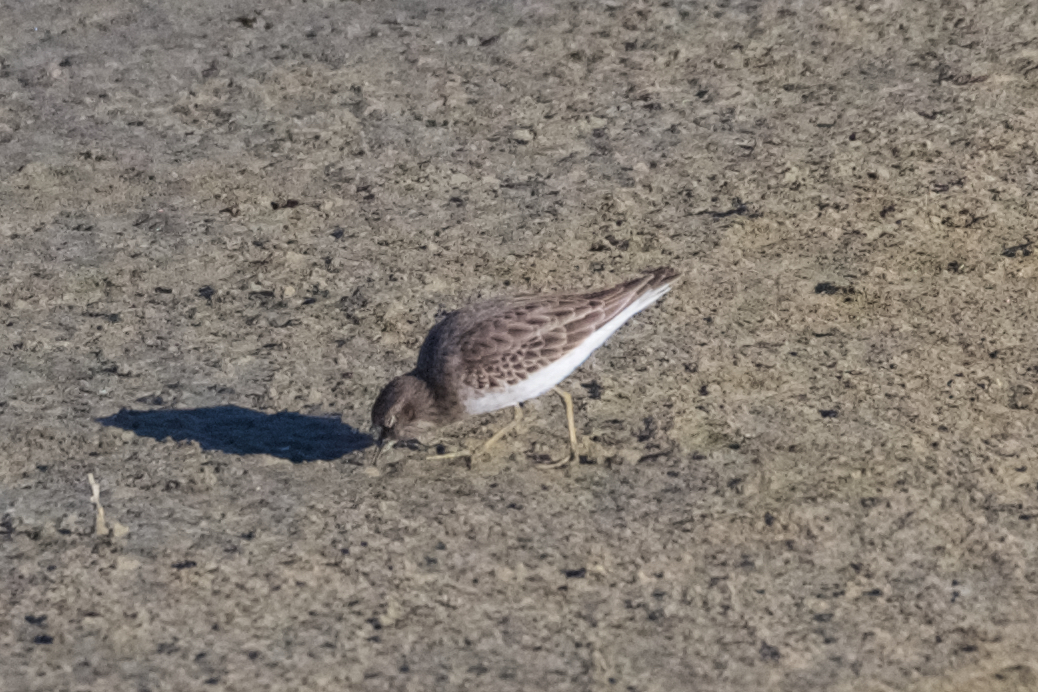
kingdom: Animalia
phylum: Chordata
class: Aves
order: Charadriiformes
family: Scolopacidae
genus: Calidris
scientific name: Calidris minutilla
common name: Least sandpiper
